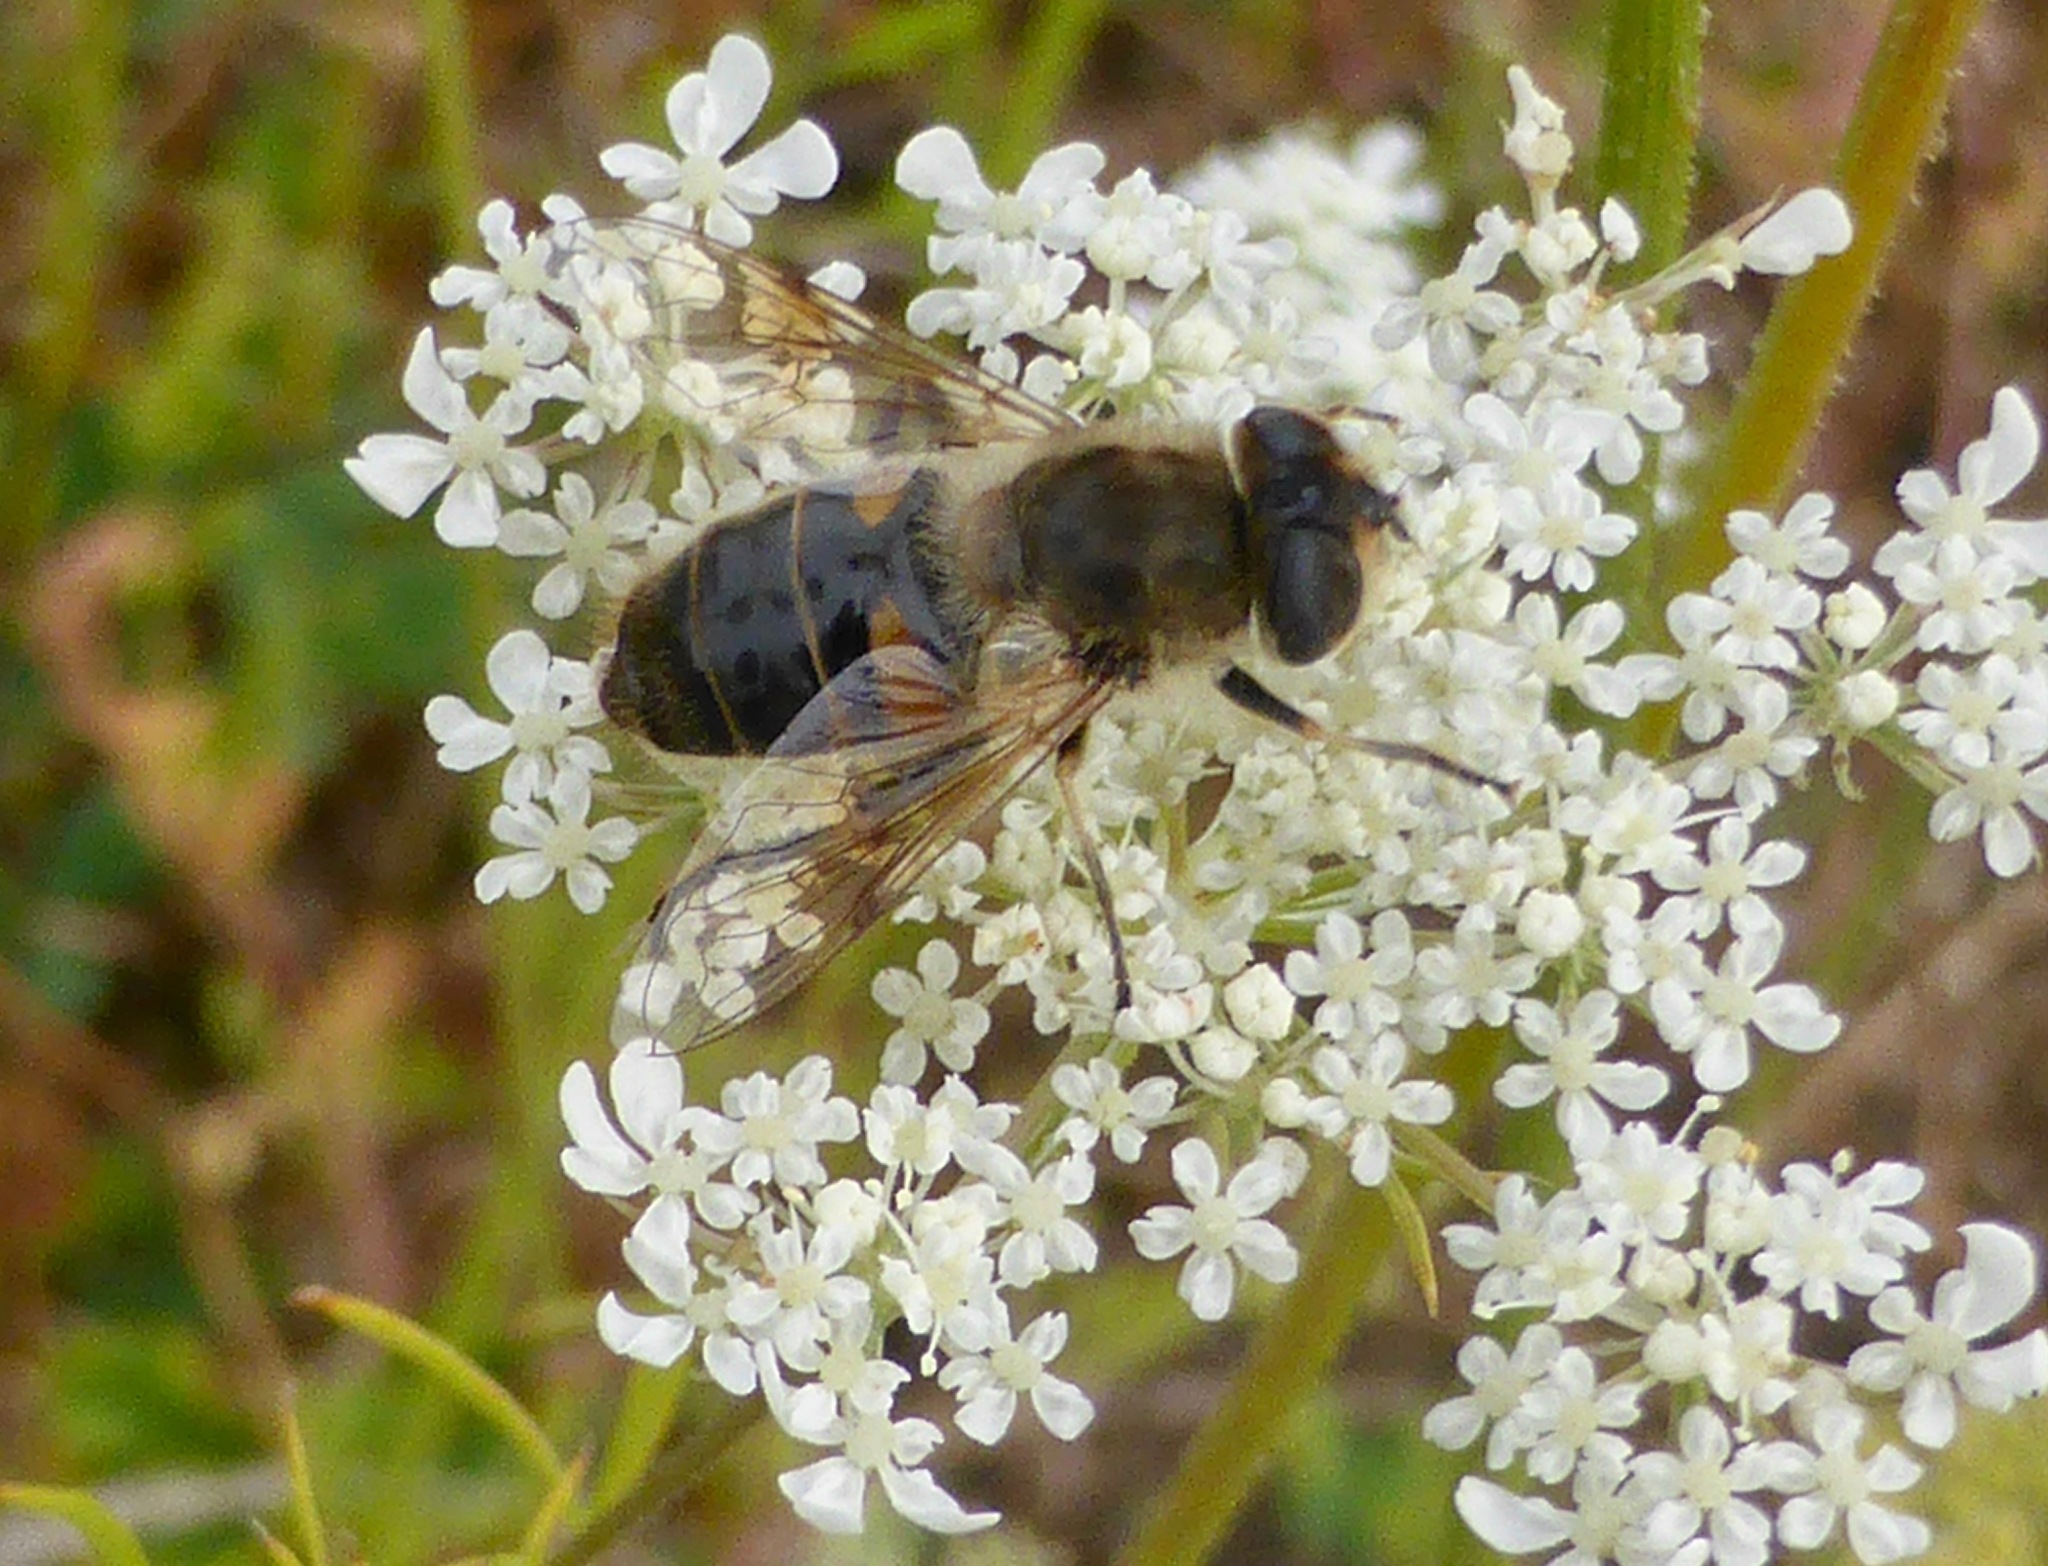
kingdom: Animalia
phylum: Arthropoda
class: Insecta
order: Diptera
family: Syrphidae
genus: Eristalis
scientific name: Eristalis tenax
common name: Drone fly
